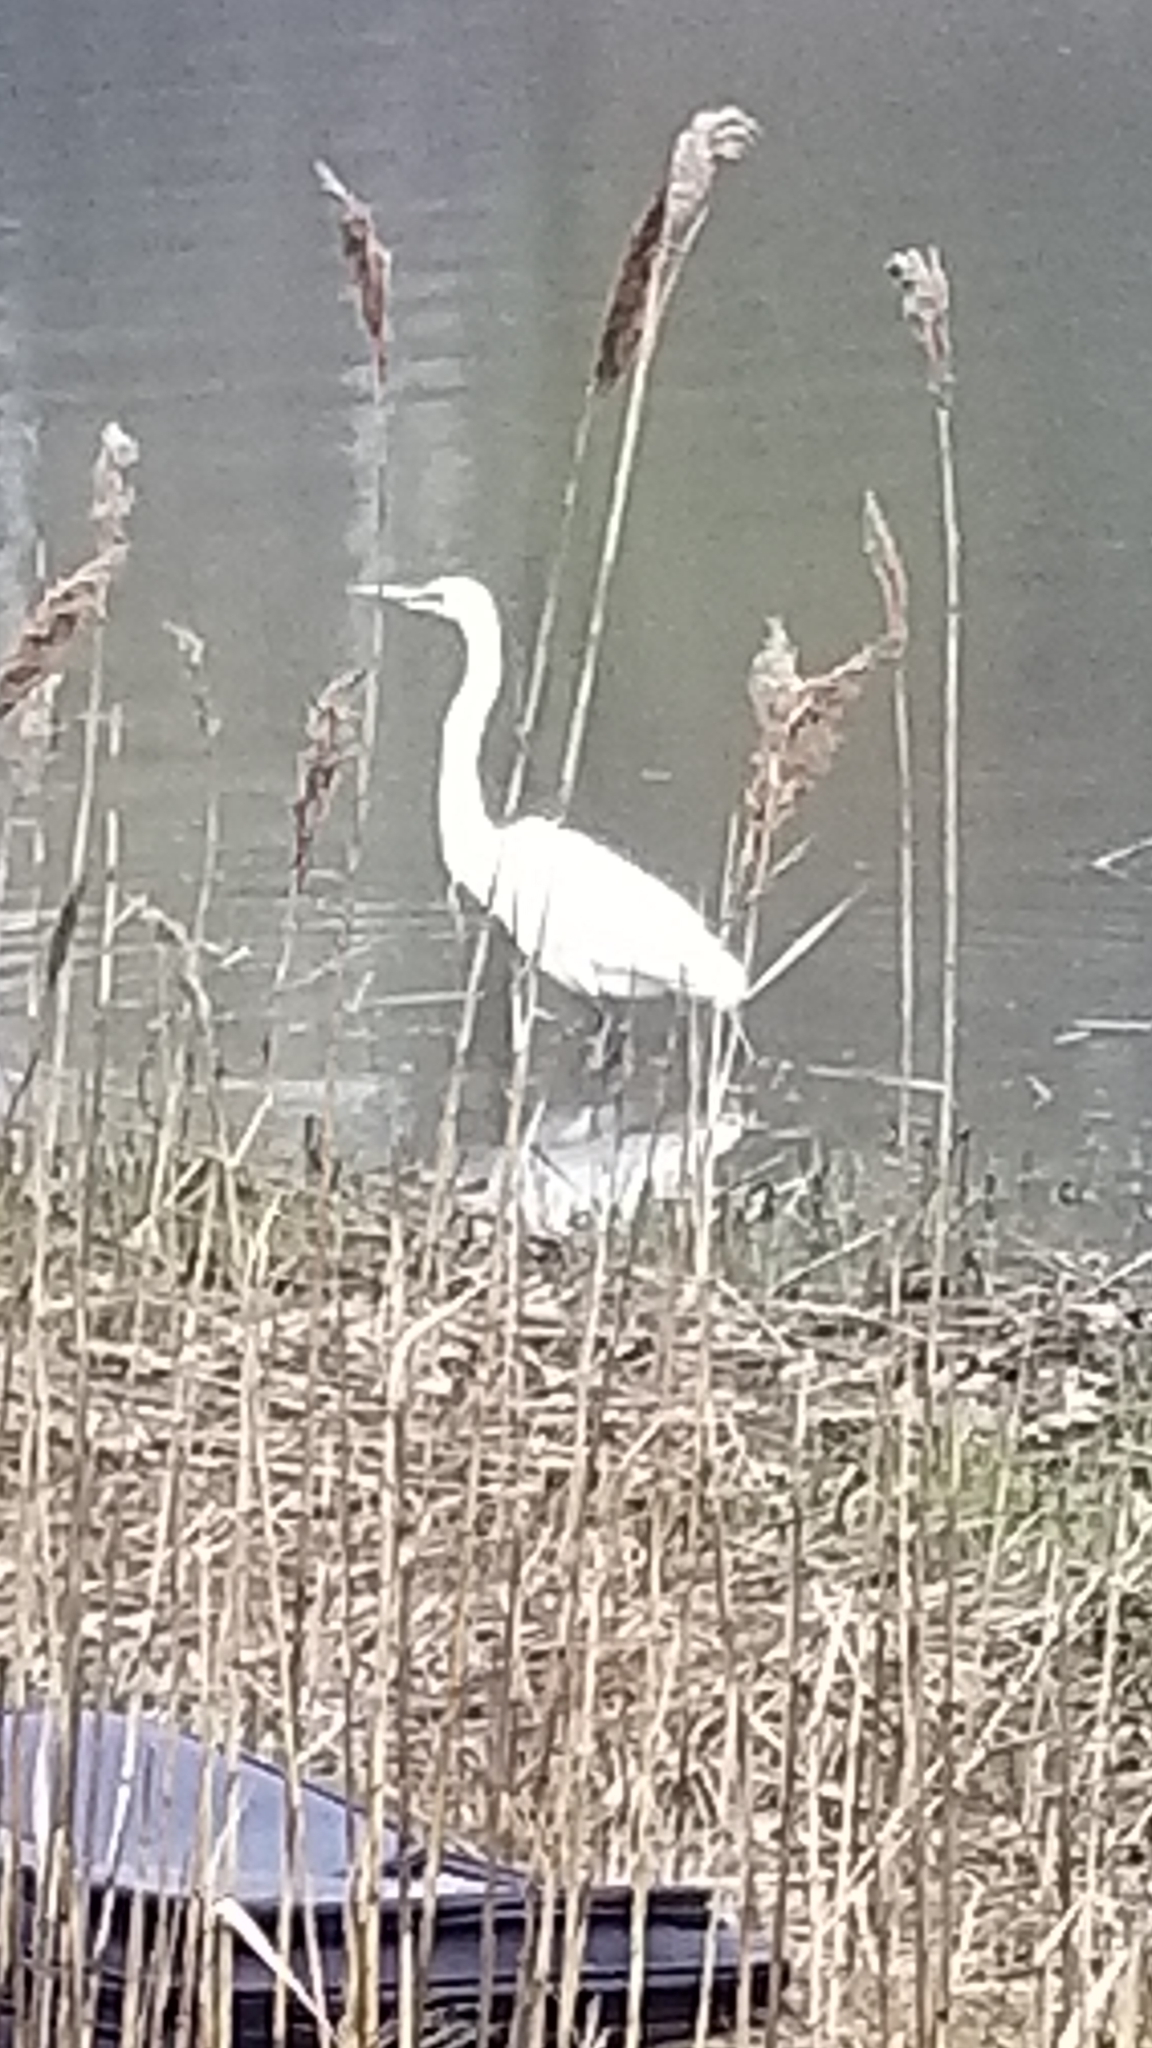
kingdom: Animalia
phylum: Chordata
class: Aves
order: Pelecaniformes
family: Ardeidae
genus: Ardea
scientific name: Ardea alba
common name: Great egret
